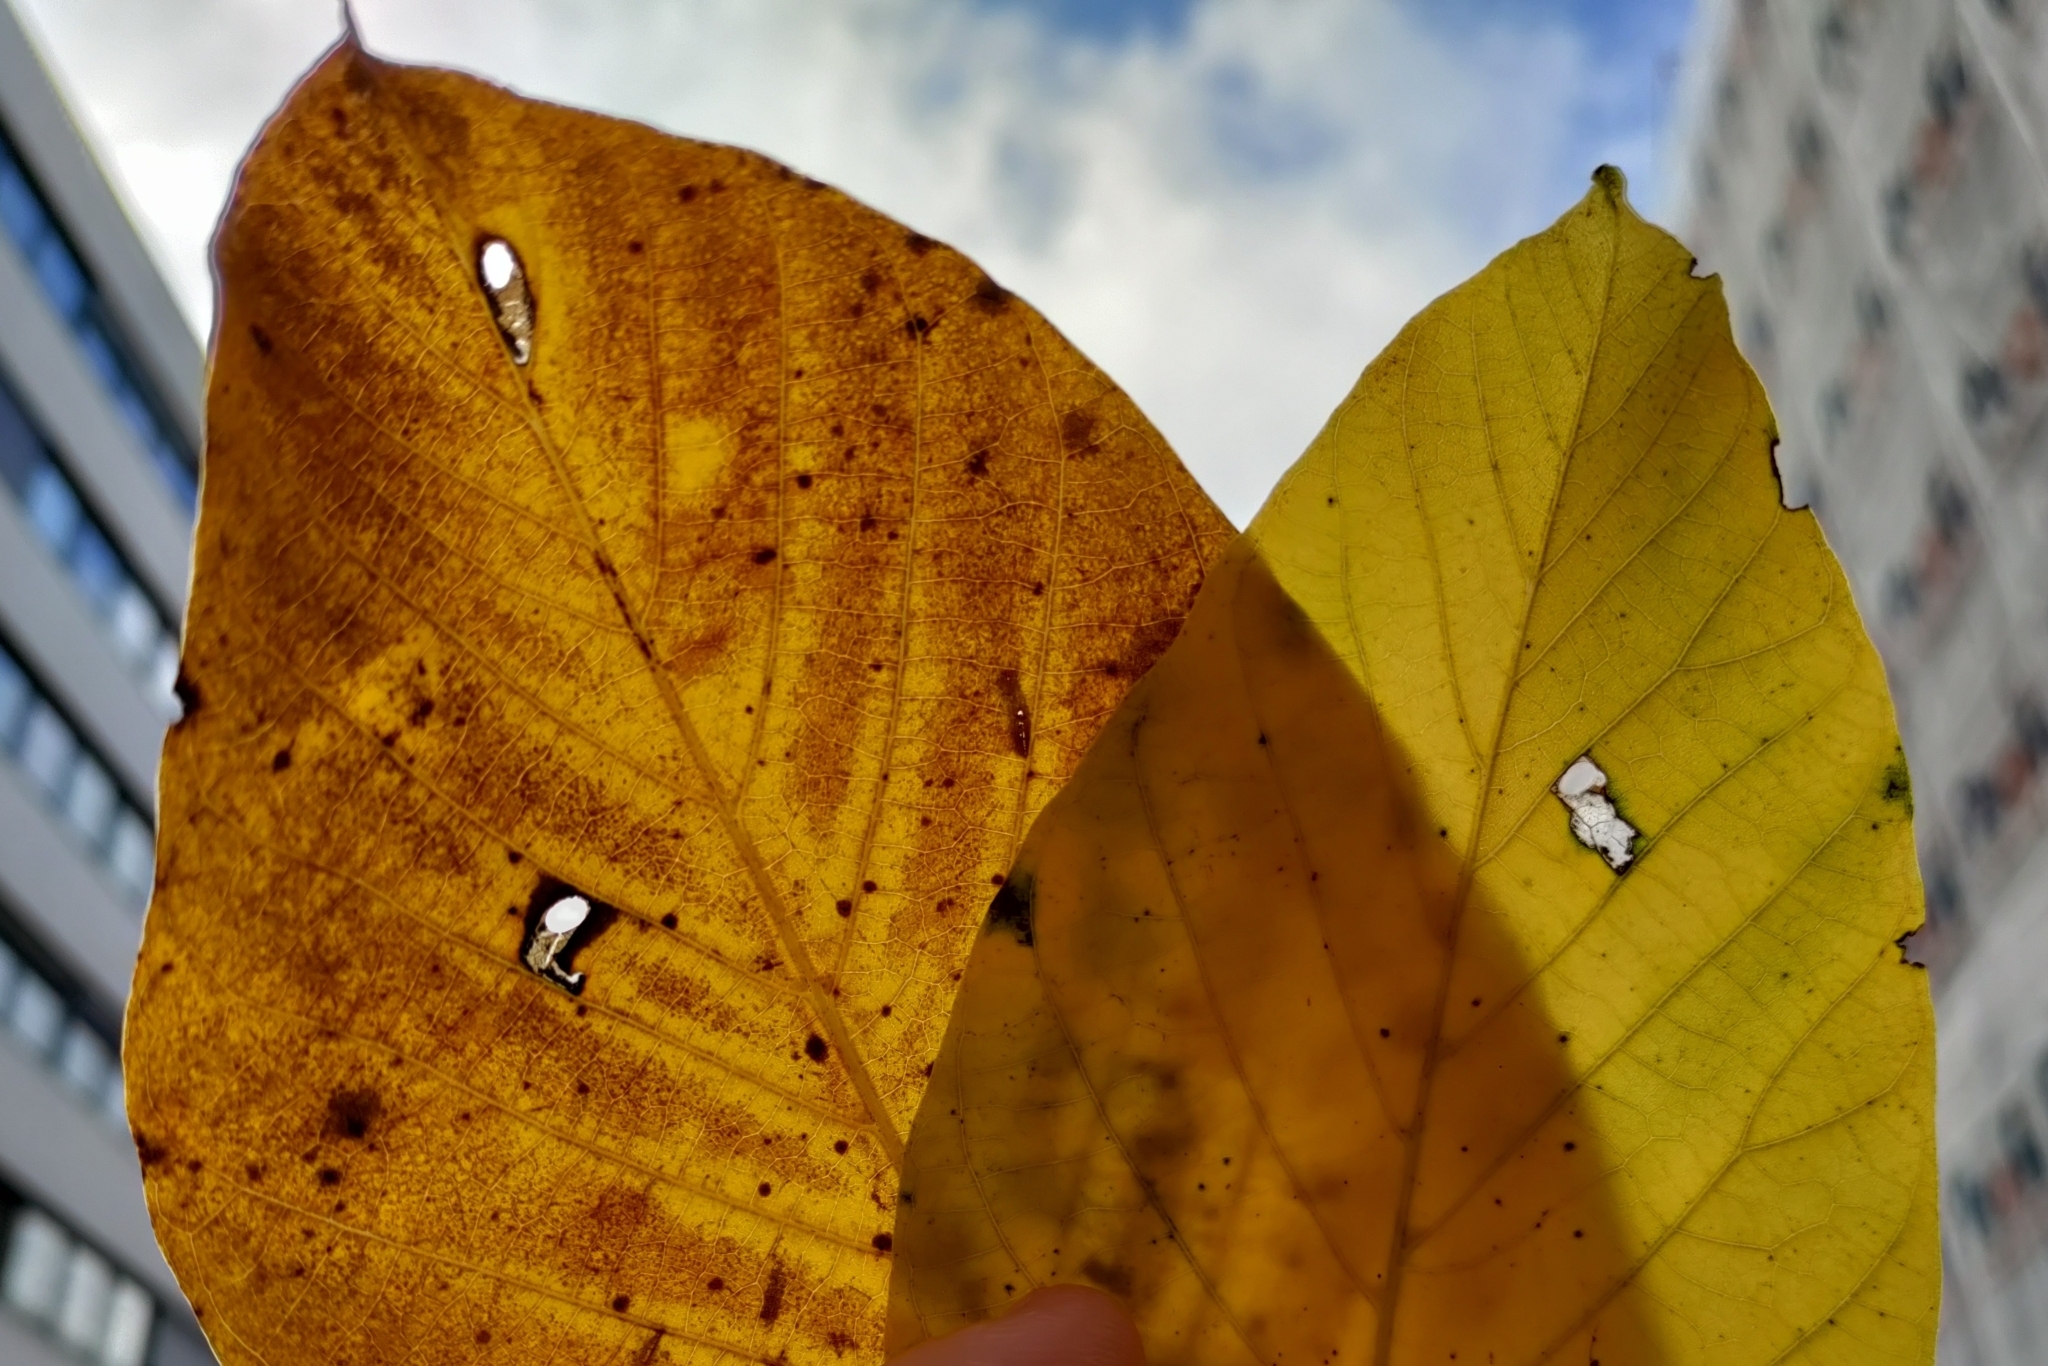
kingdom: Animalia
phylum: Arthropoda
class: Insecta
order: Lepidoptera
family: Heliozelidae
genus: Coptodisca
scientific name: Coptodisca lucifluella
